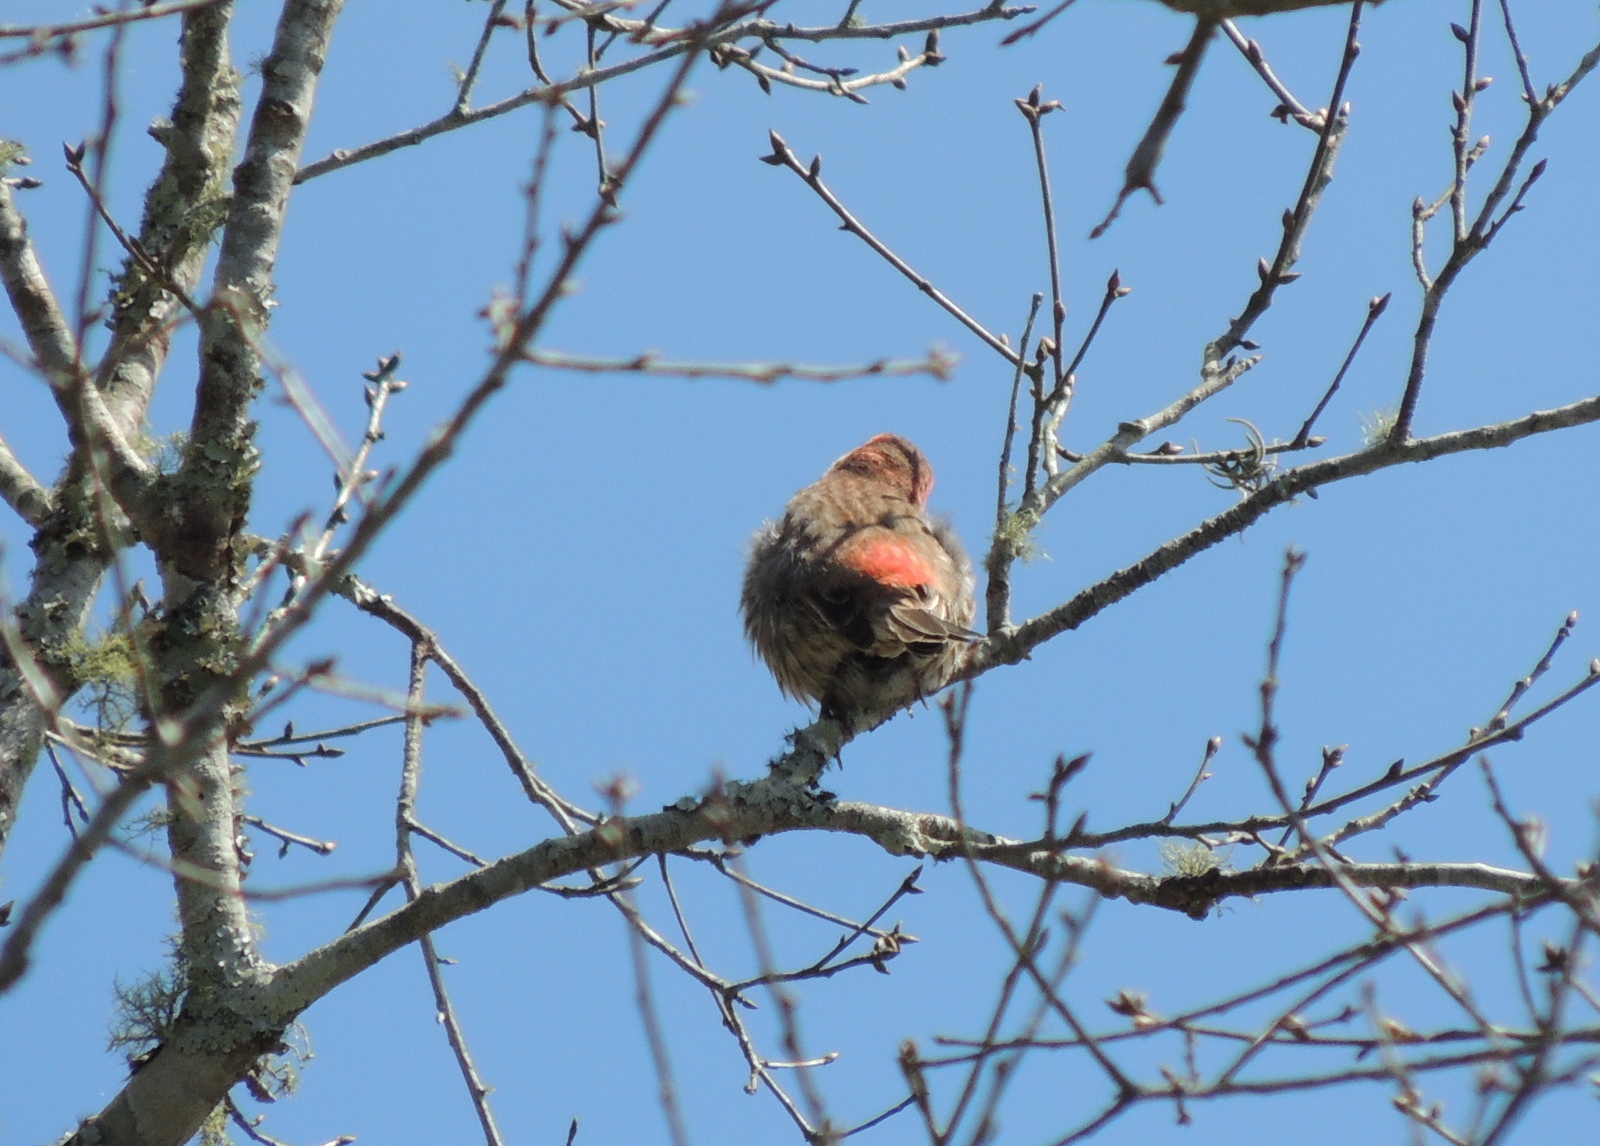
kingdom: Animalia
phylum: Chordata
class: Aves
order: Passeriformes
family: Fringillidae
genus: Haemorhous
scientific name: Haemorhous mexicanus
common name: House finch
